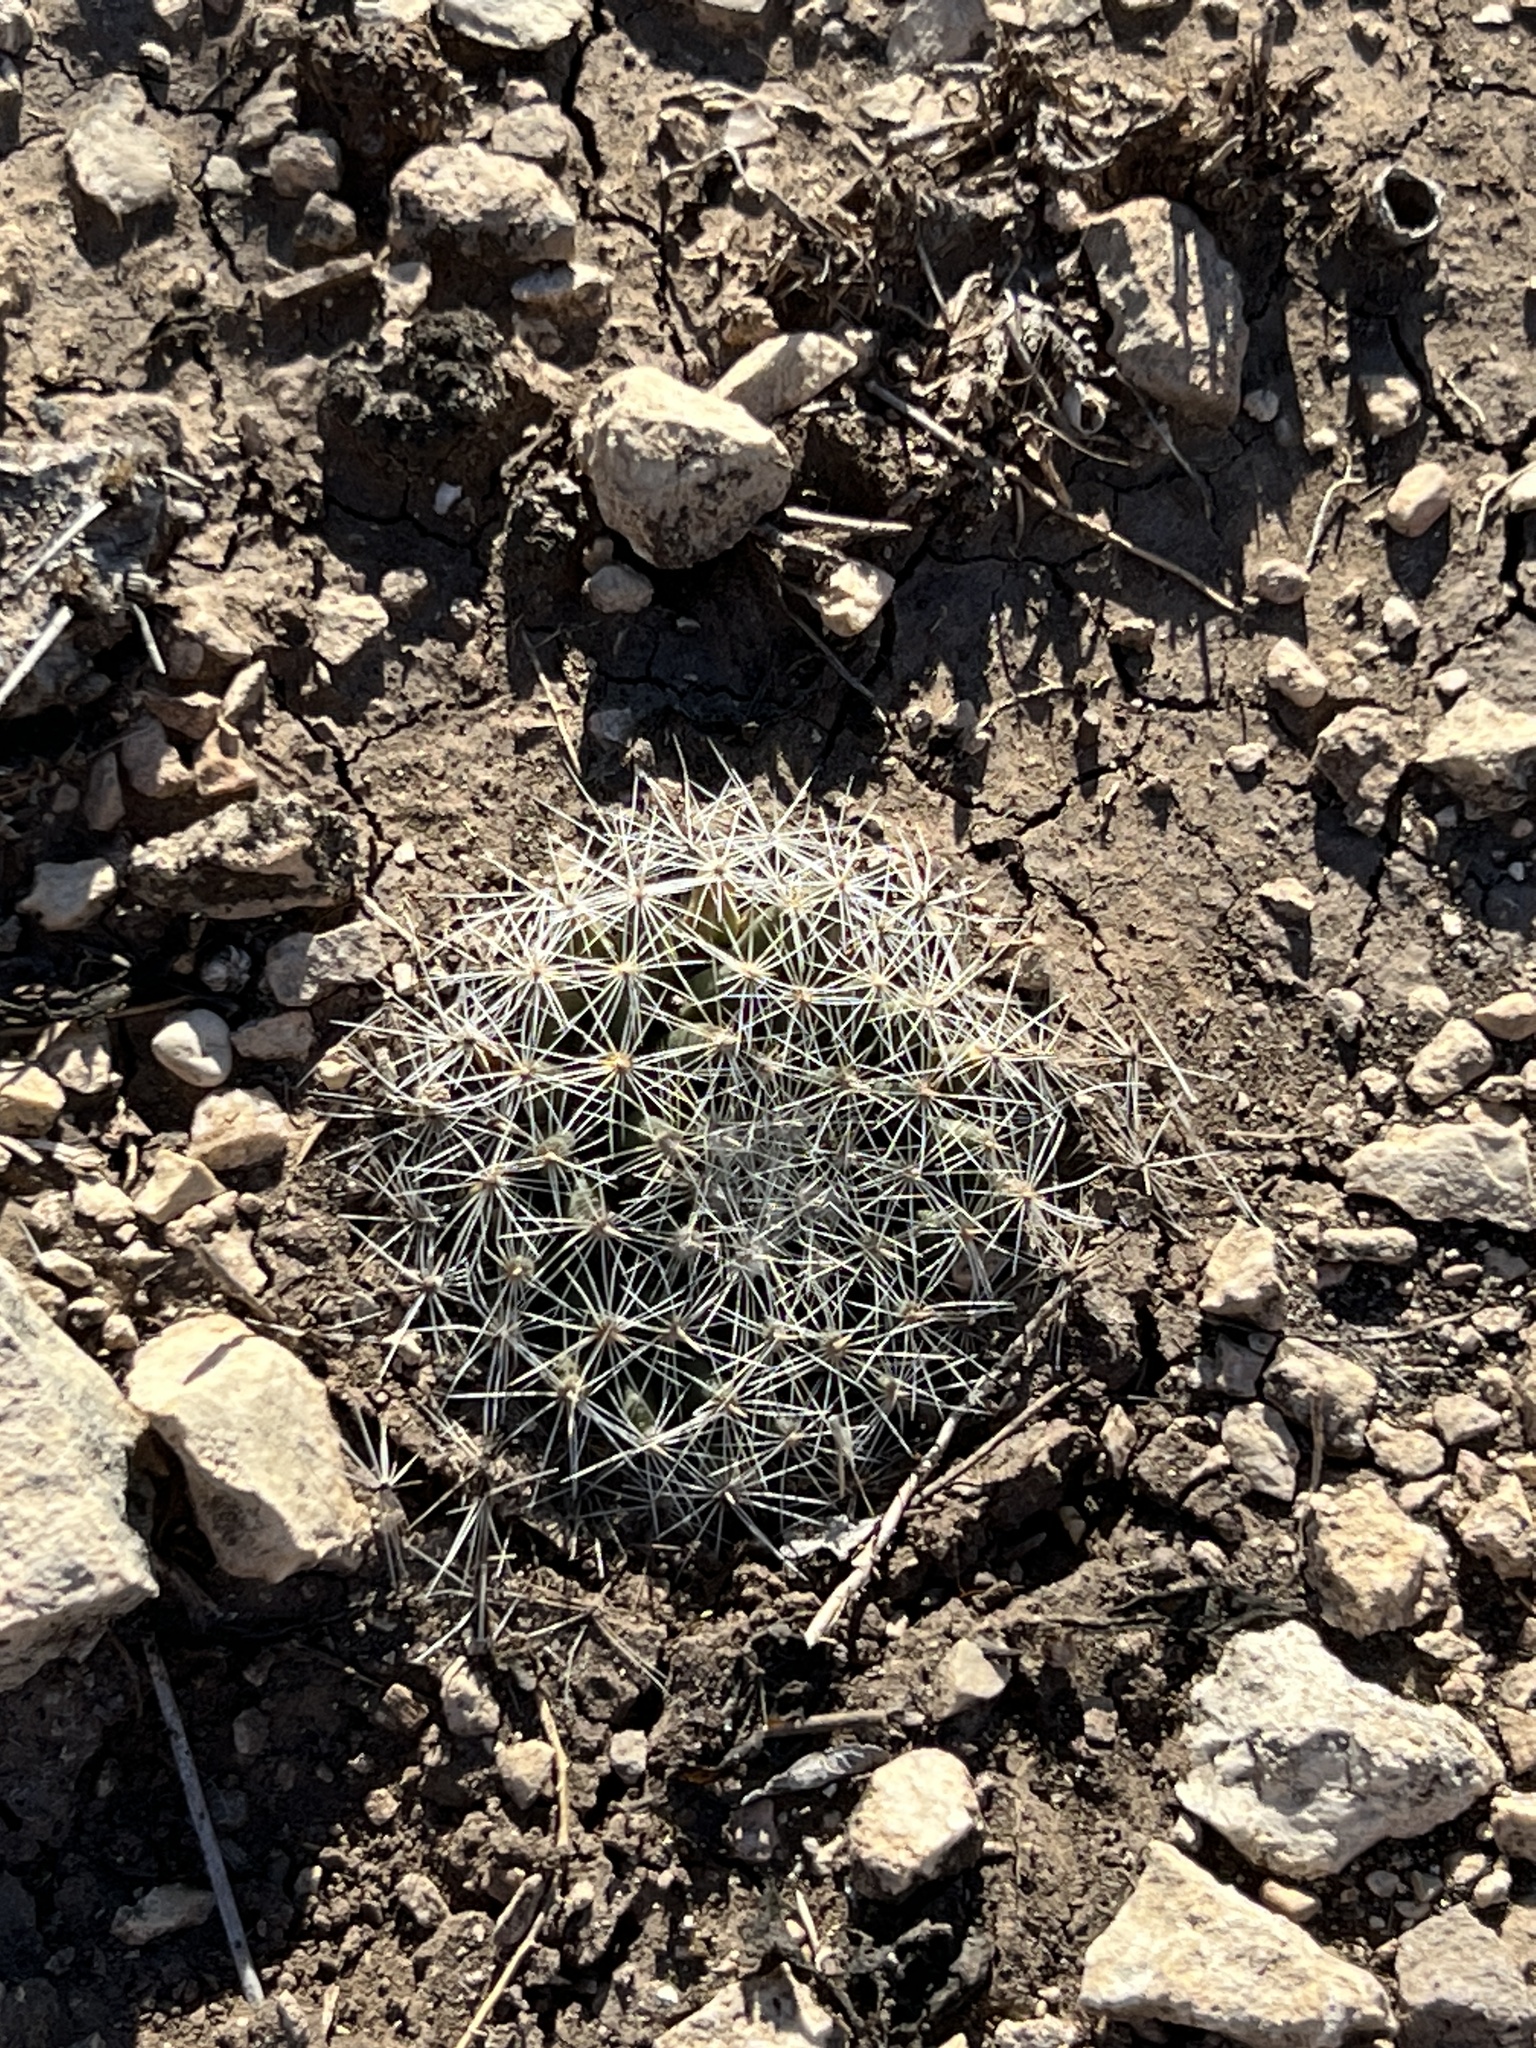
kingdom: Plantae
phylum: Tracheophyta
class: Magnoliopsida
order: Caryophyllales
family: Cactaceae
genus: Mammillaria
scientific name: Mammillaria heyderi
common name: Little nipple cactus
